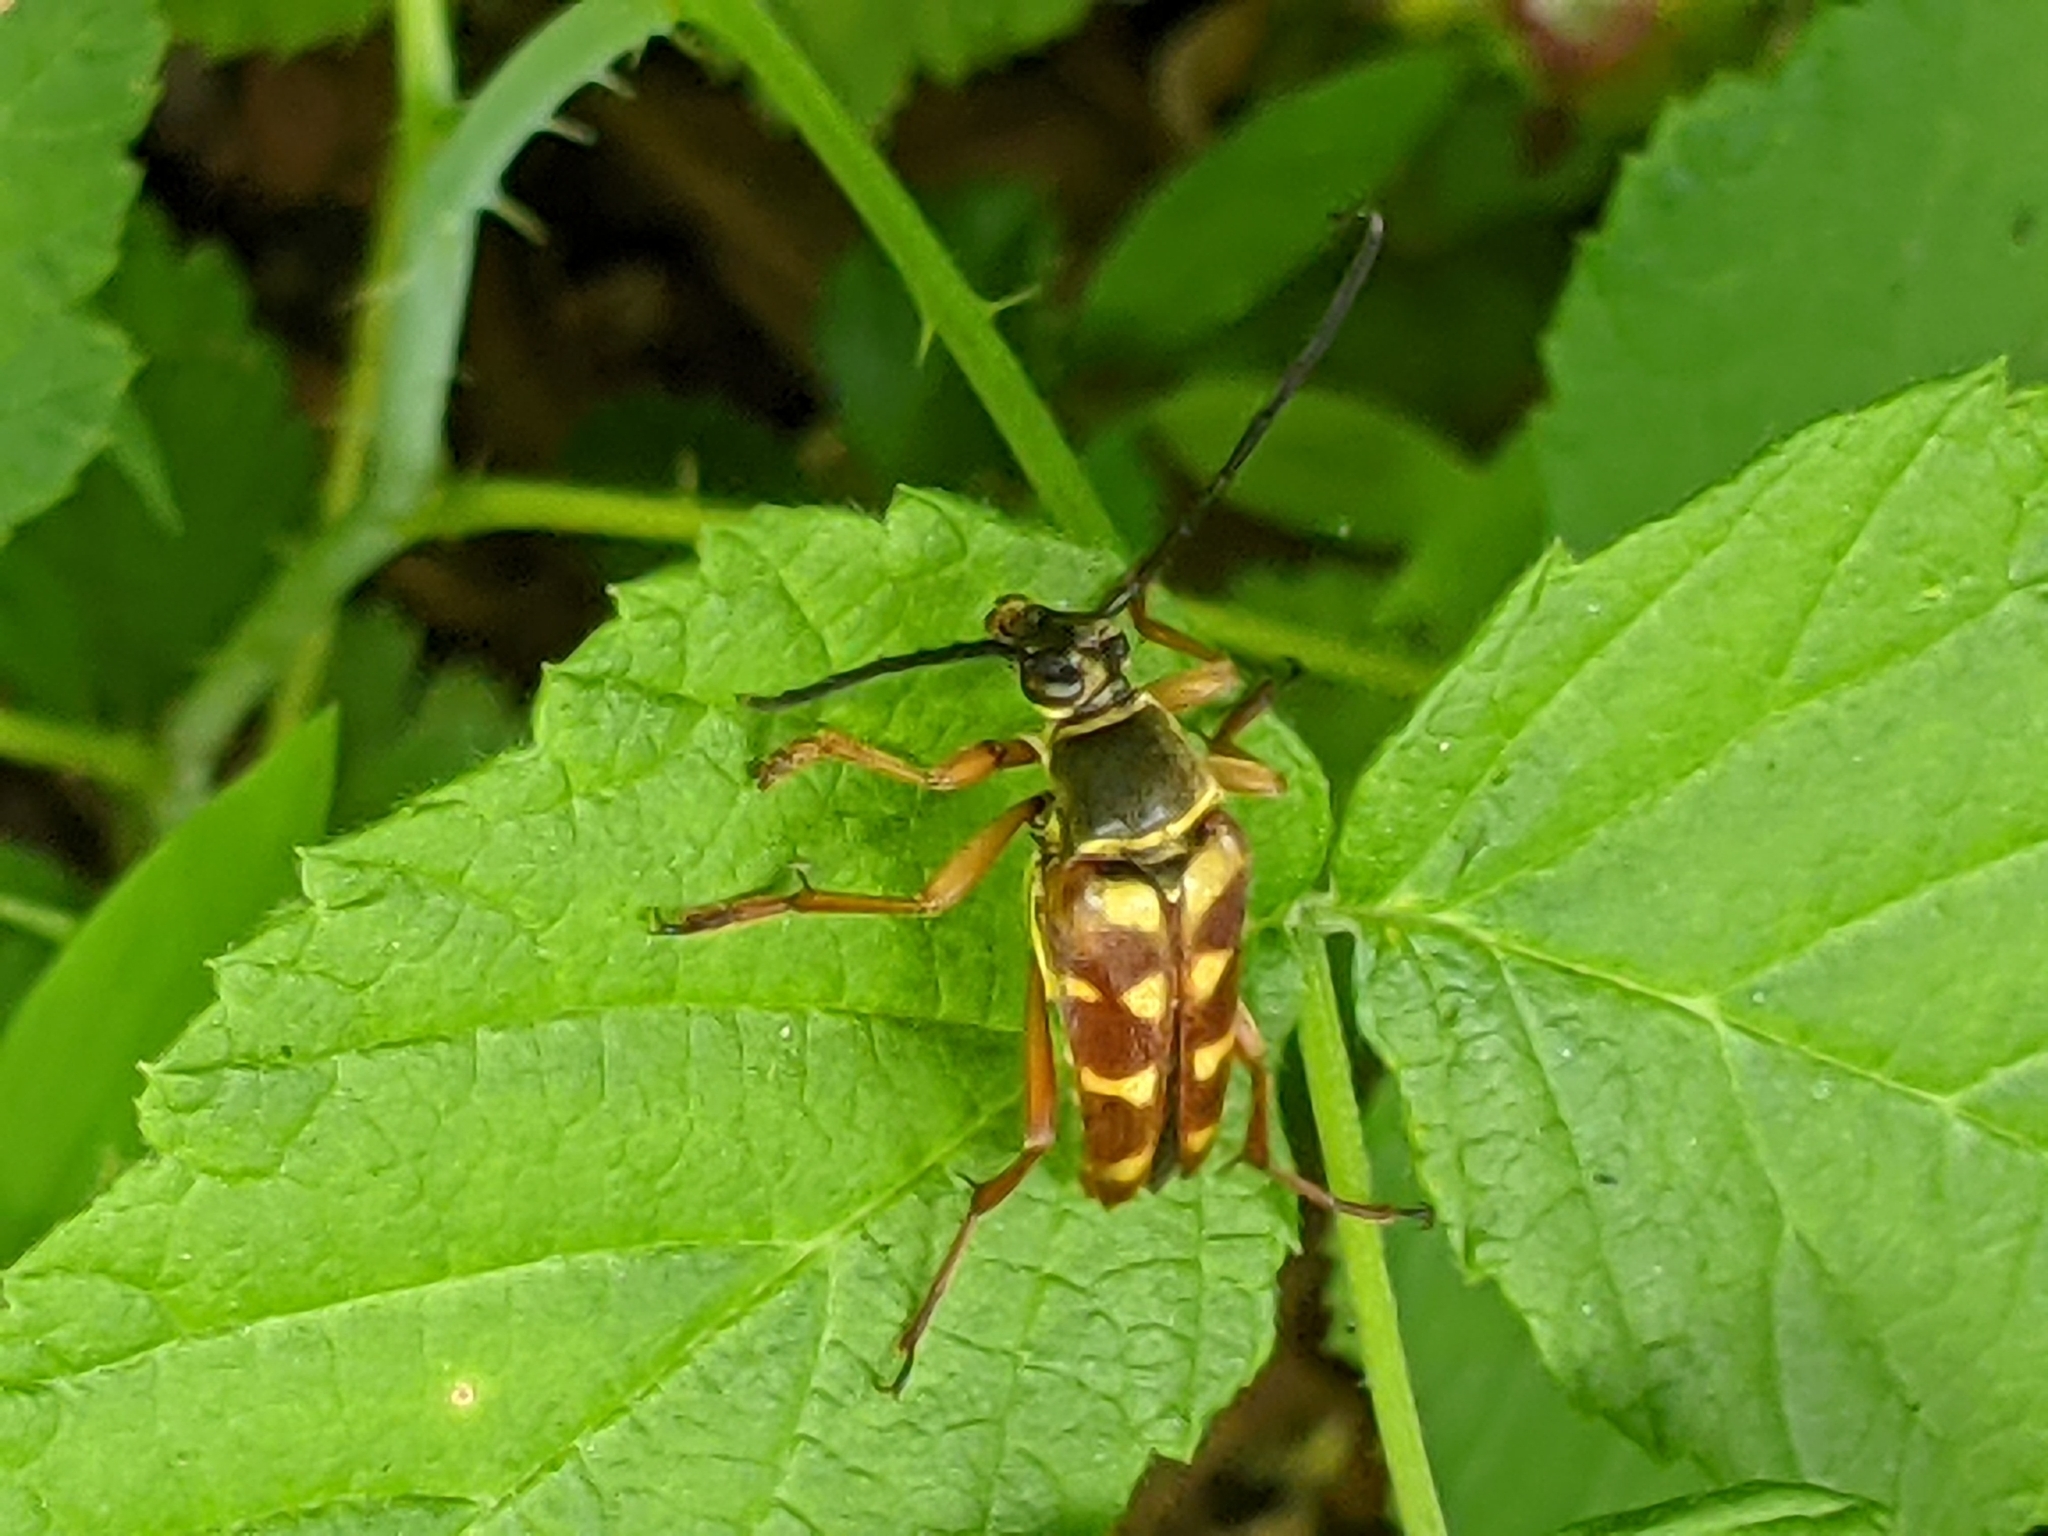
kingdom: Animalia
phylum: Arthropoda
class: Insecta
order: Coleoptera
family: Cerambycidae
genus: Typocerus
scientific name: Typocerus velutinus
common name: Banded longhorn beetle
